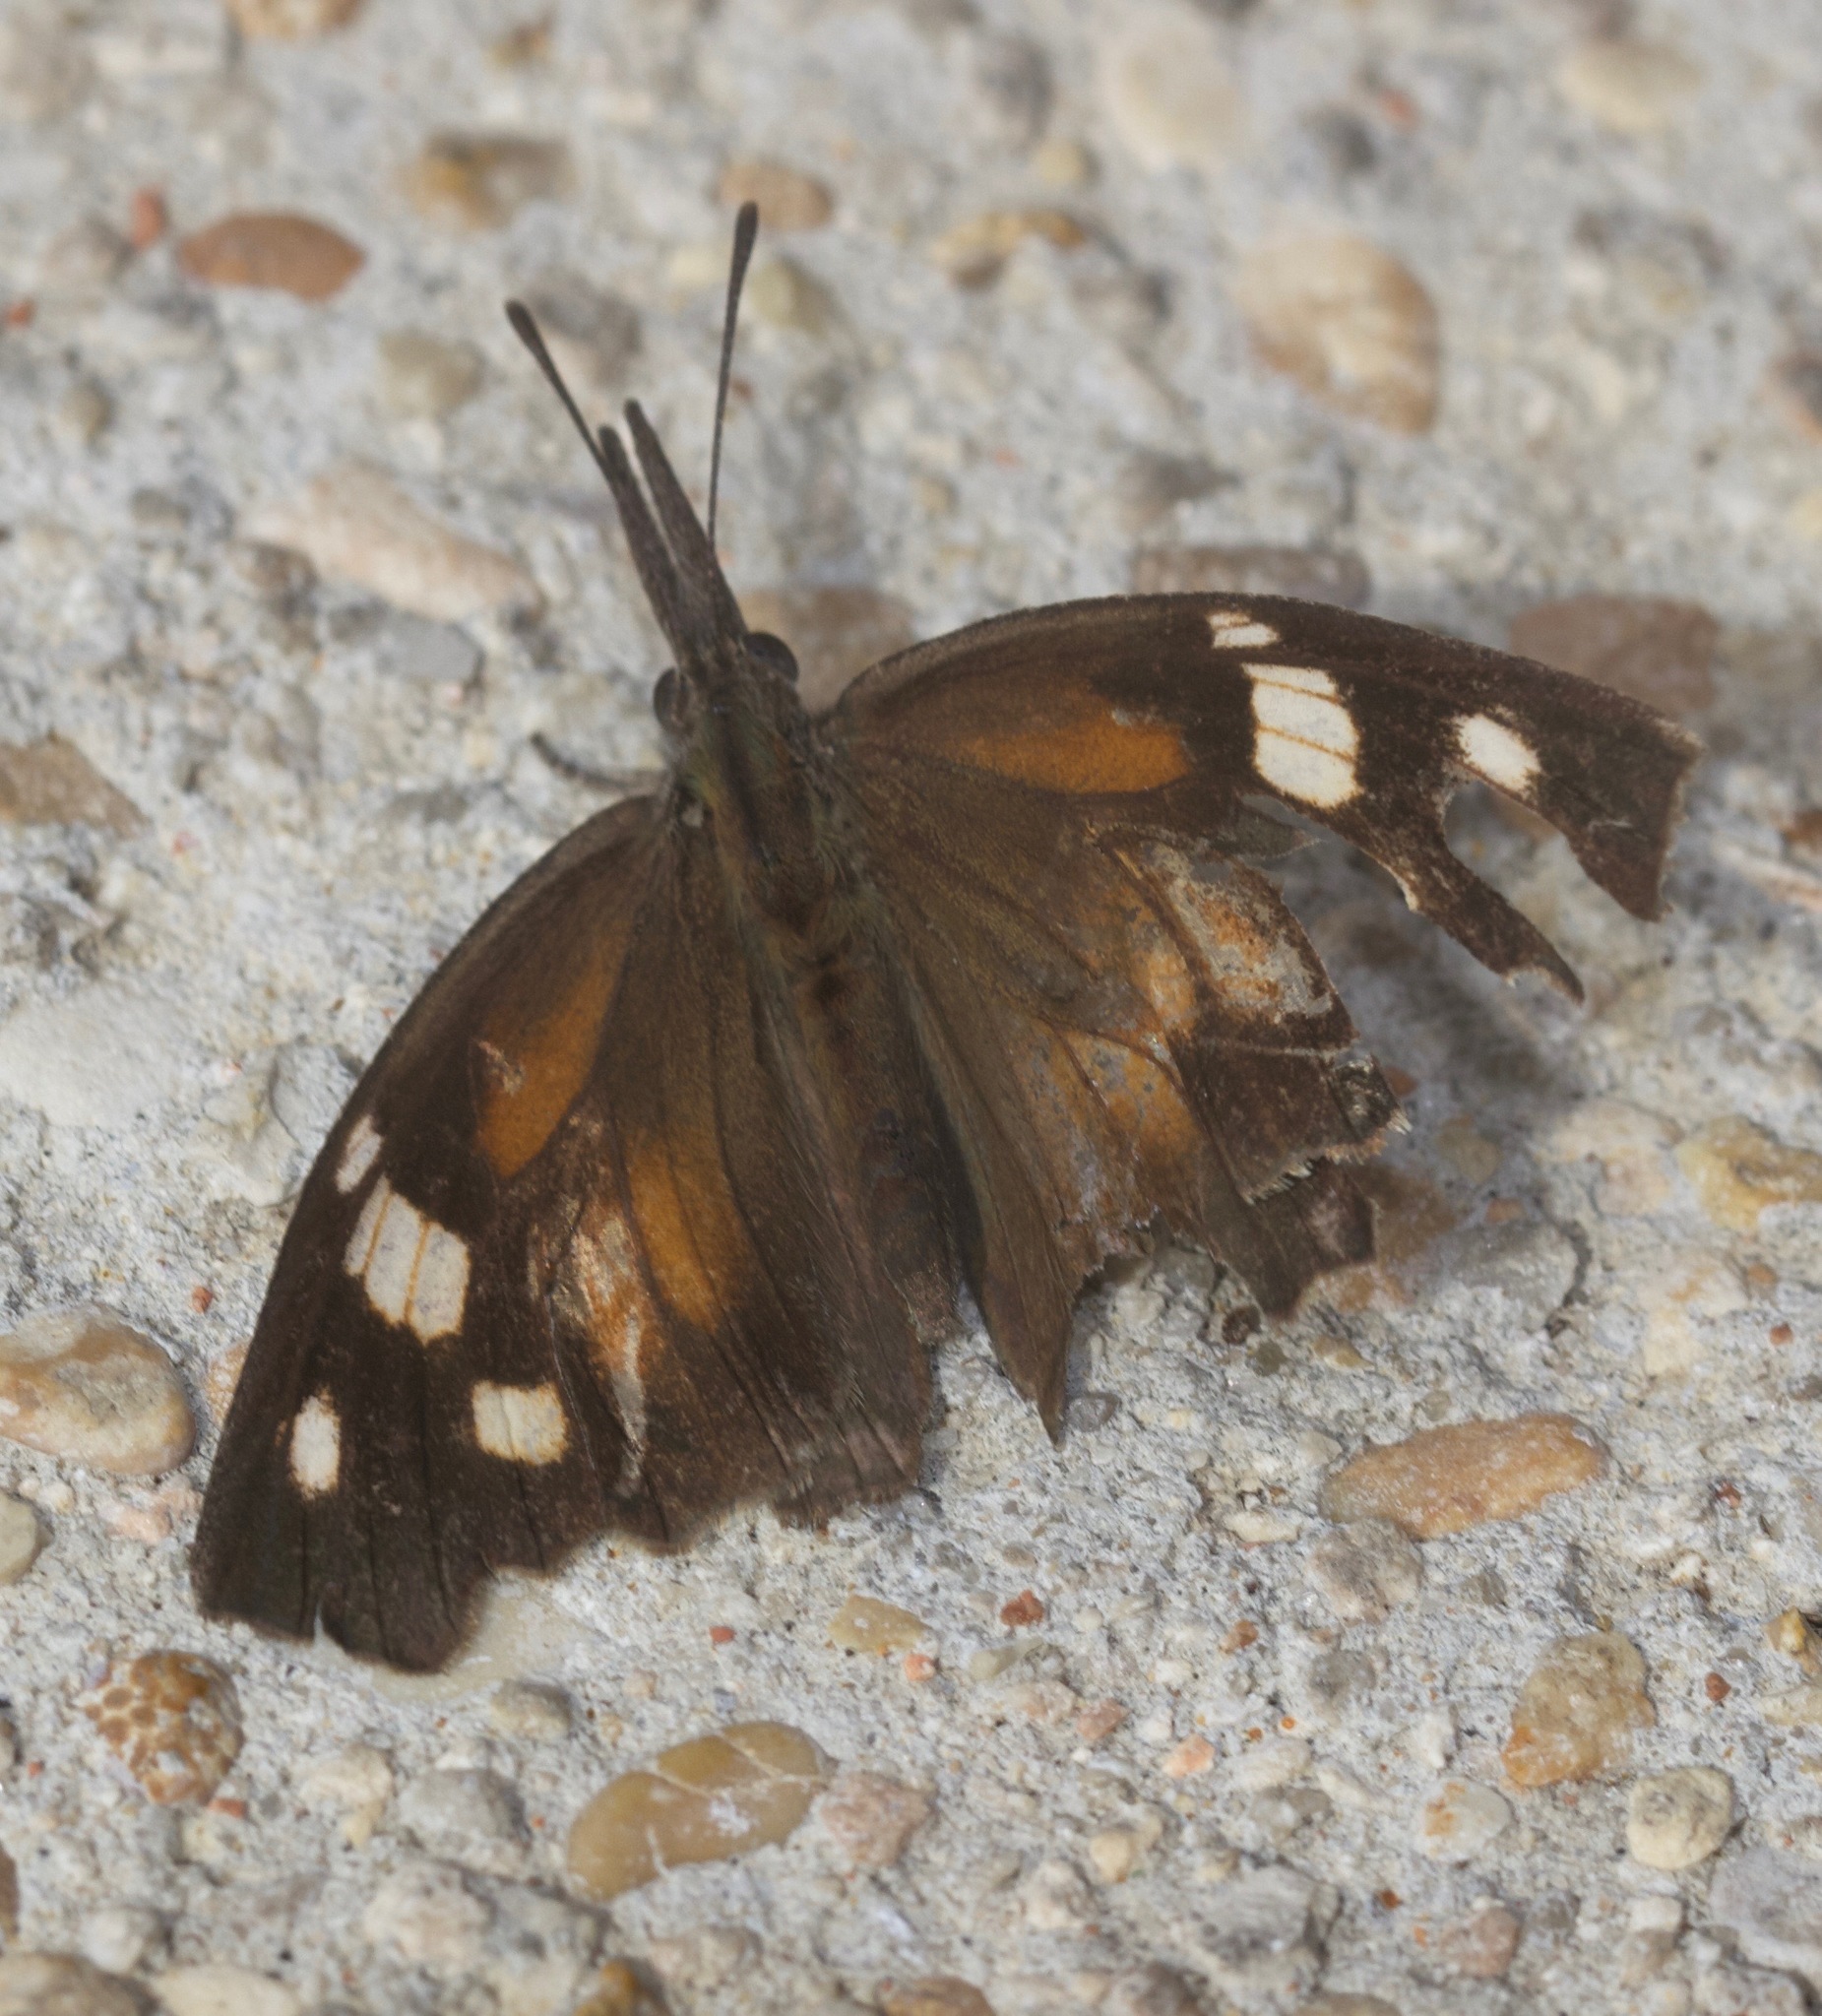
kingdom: Animalia
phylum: Arthropoda
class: Insecta
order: Lepidoptera
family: Nymphalidae
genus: Libytheana
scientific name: Libytheana carinenta
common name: American snout
